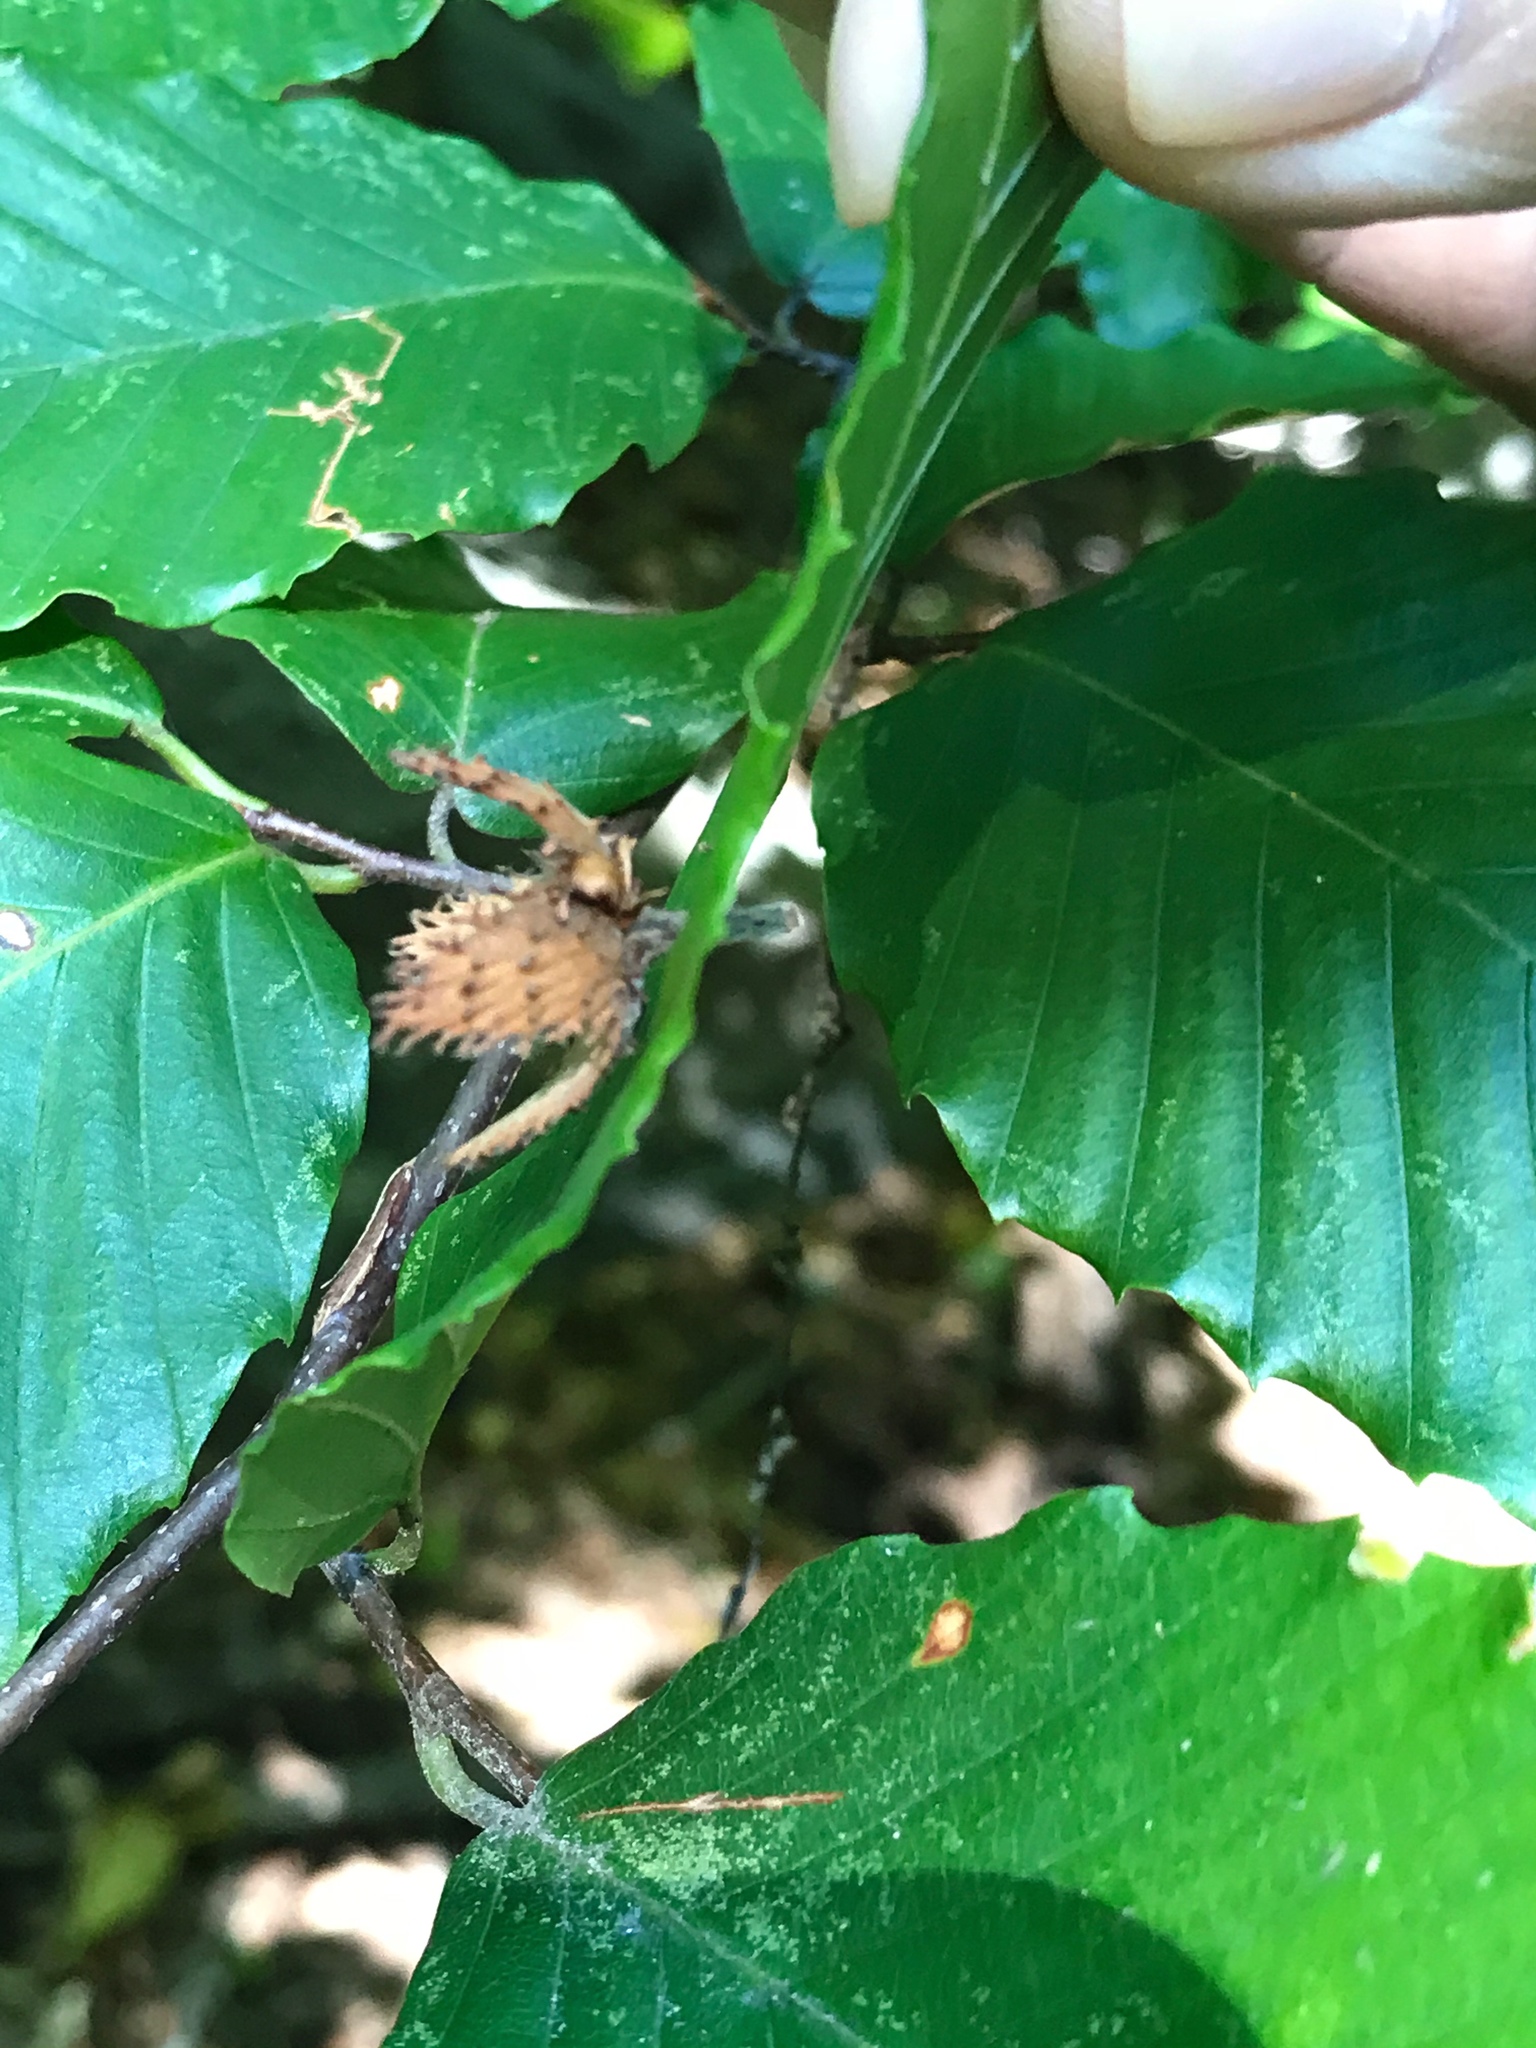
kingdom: Plantae
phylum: Tracheophyta
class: Magnoliopsida
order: Fagales
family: Fagaceae
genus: Fagus
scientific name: Fagus grandifolia
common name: American beech
